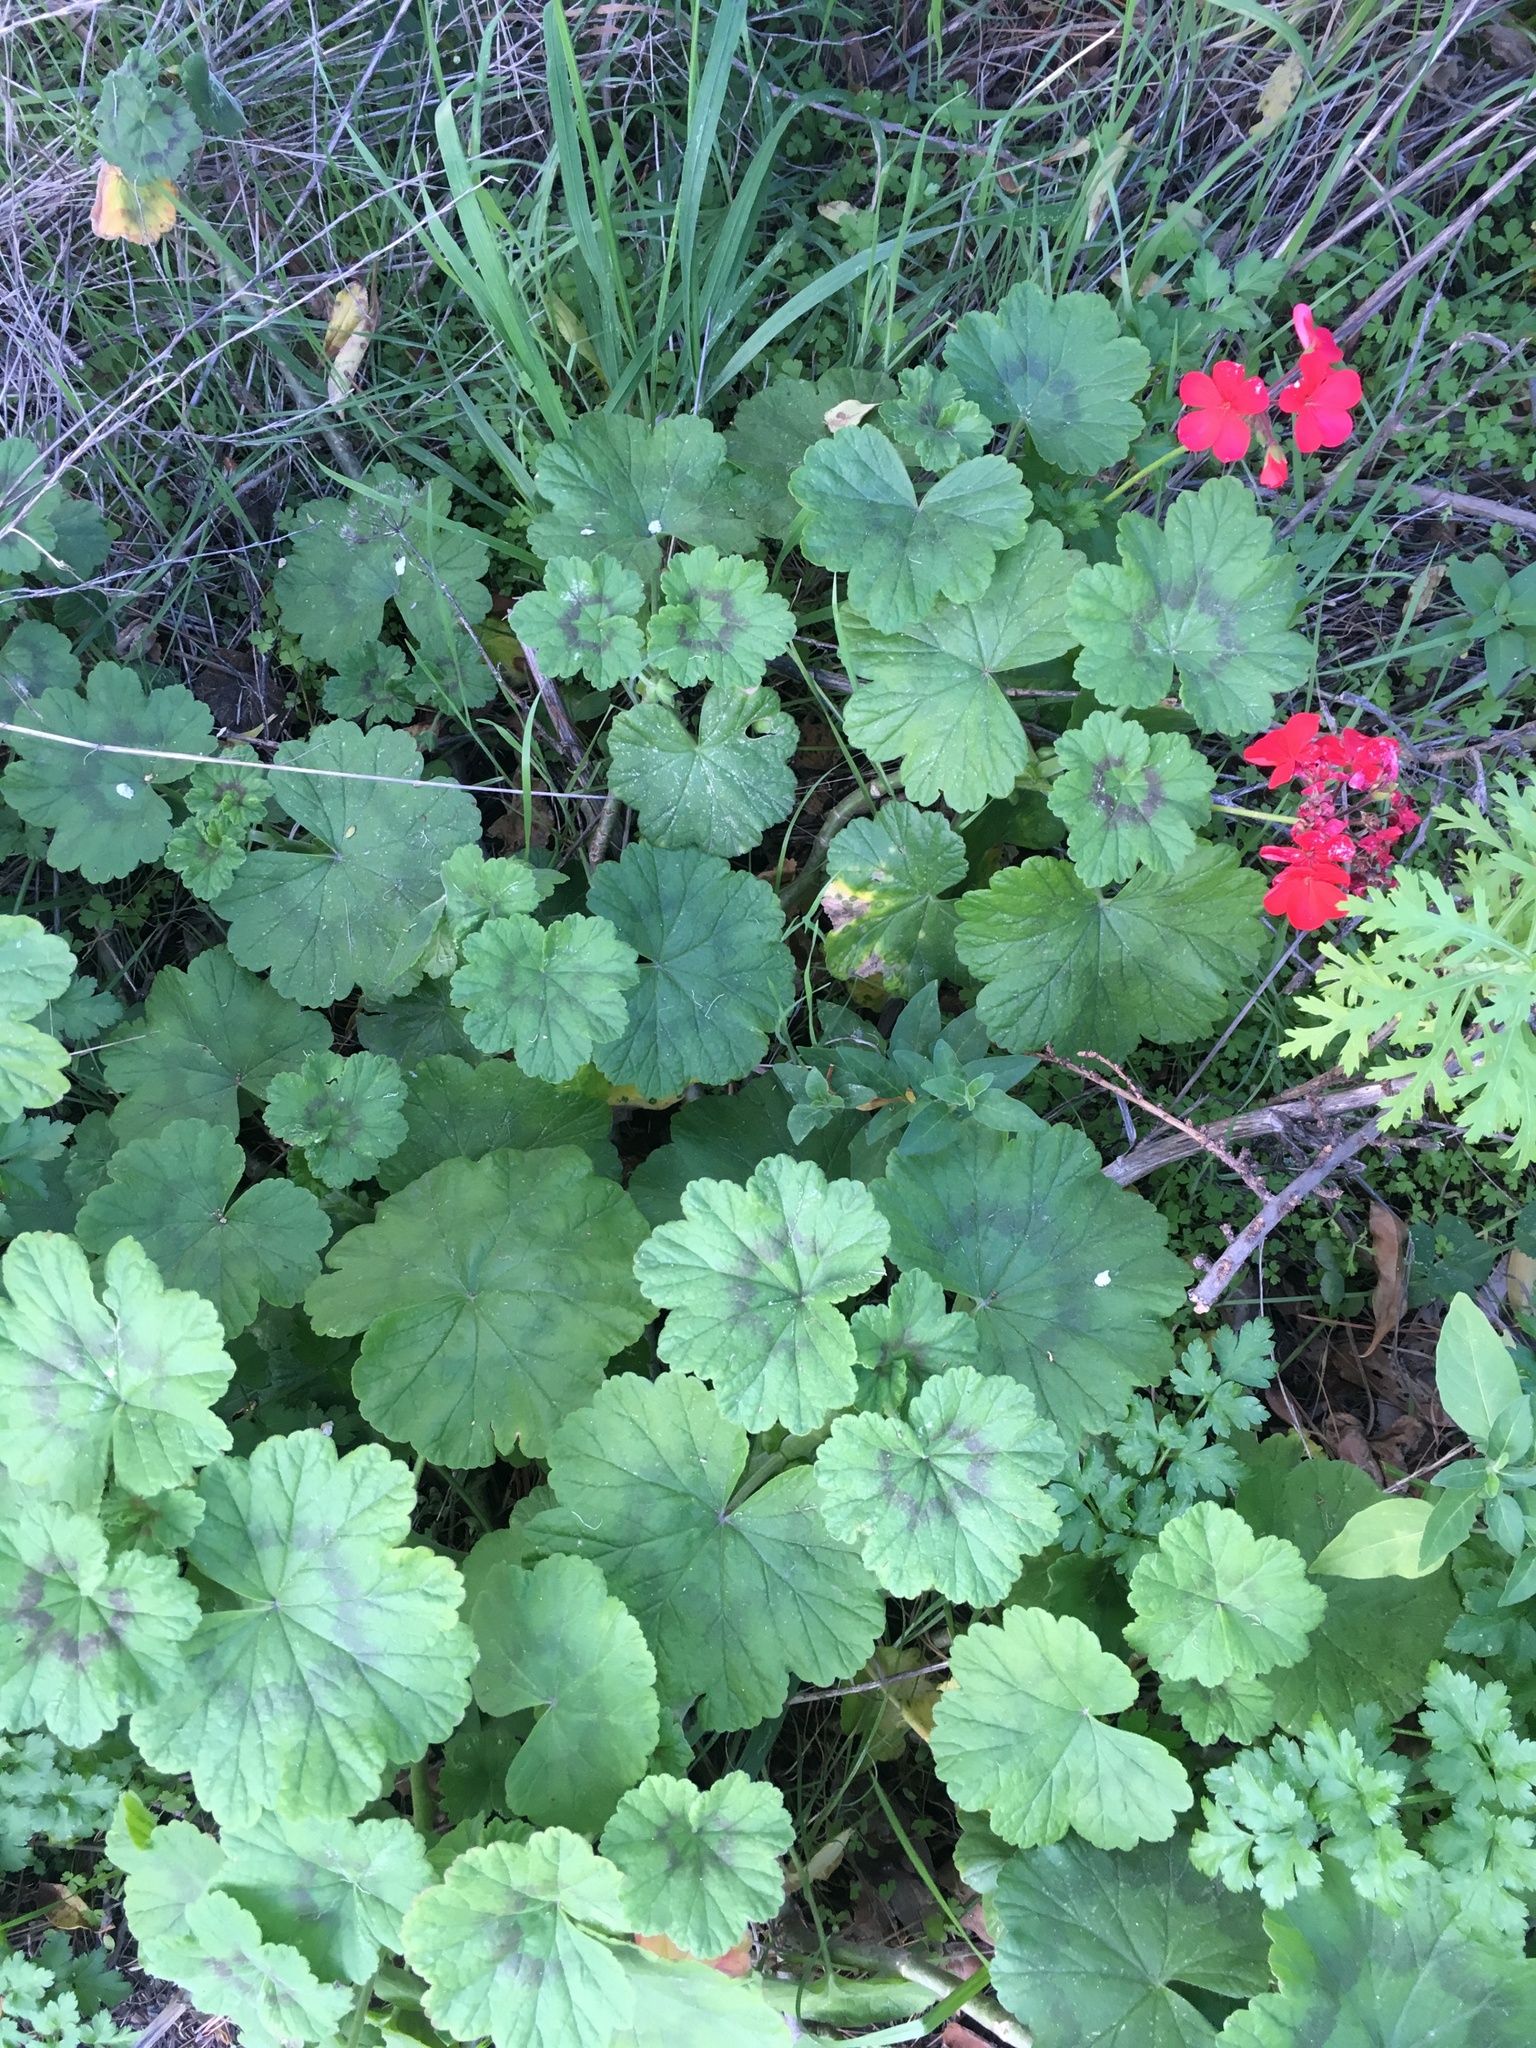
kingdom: Plantae
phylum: Tracheophyta
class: Magnoliopsida
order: Geraniales
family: Geraniaceae
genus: Pelargonium
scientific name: Pelargonium hybridum
